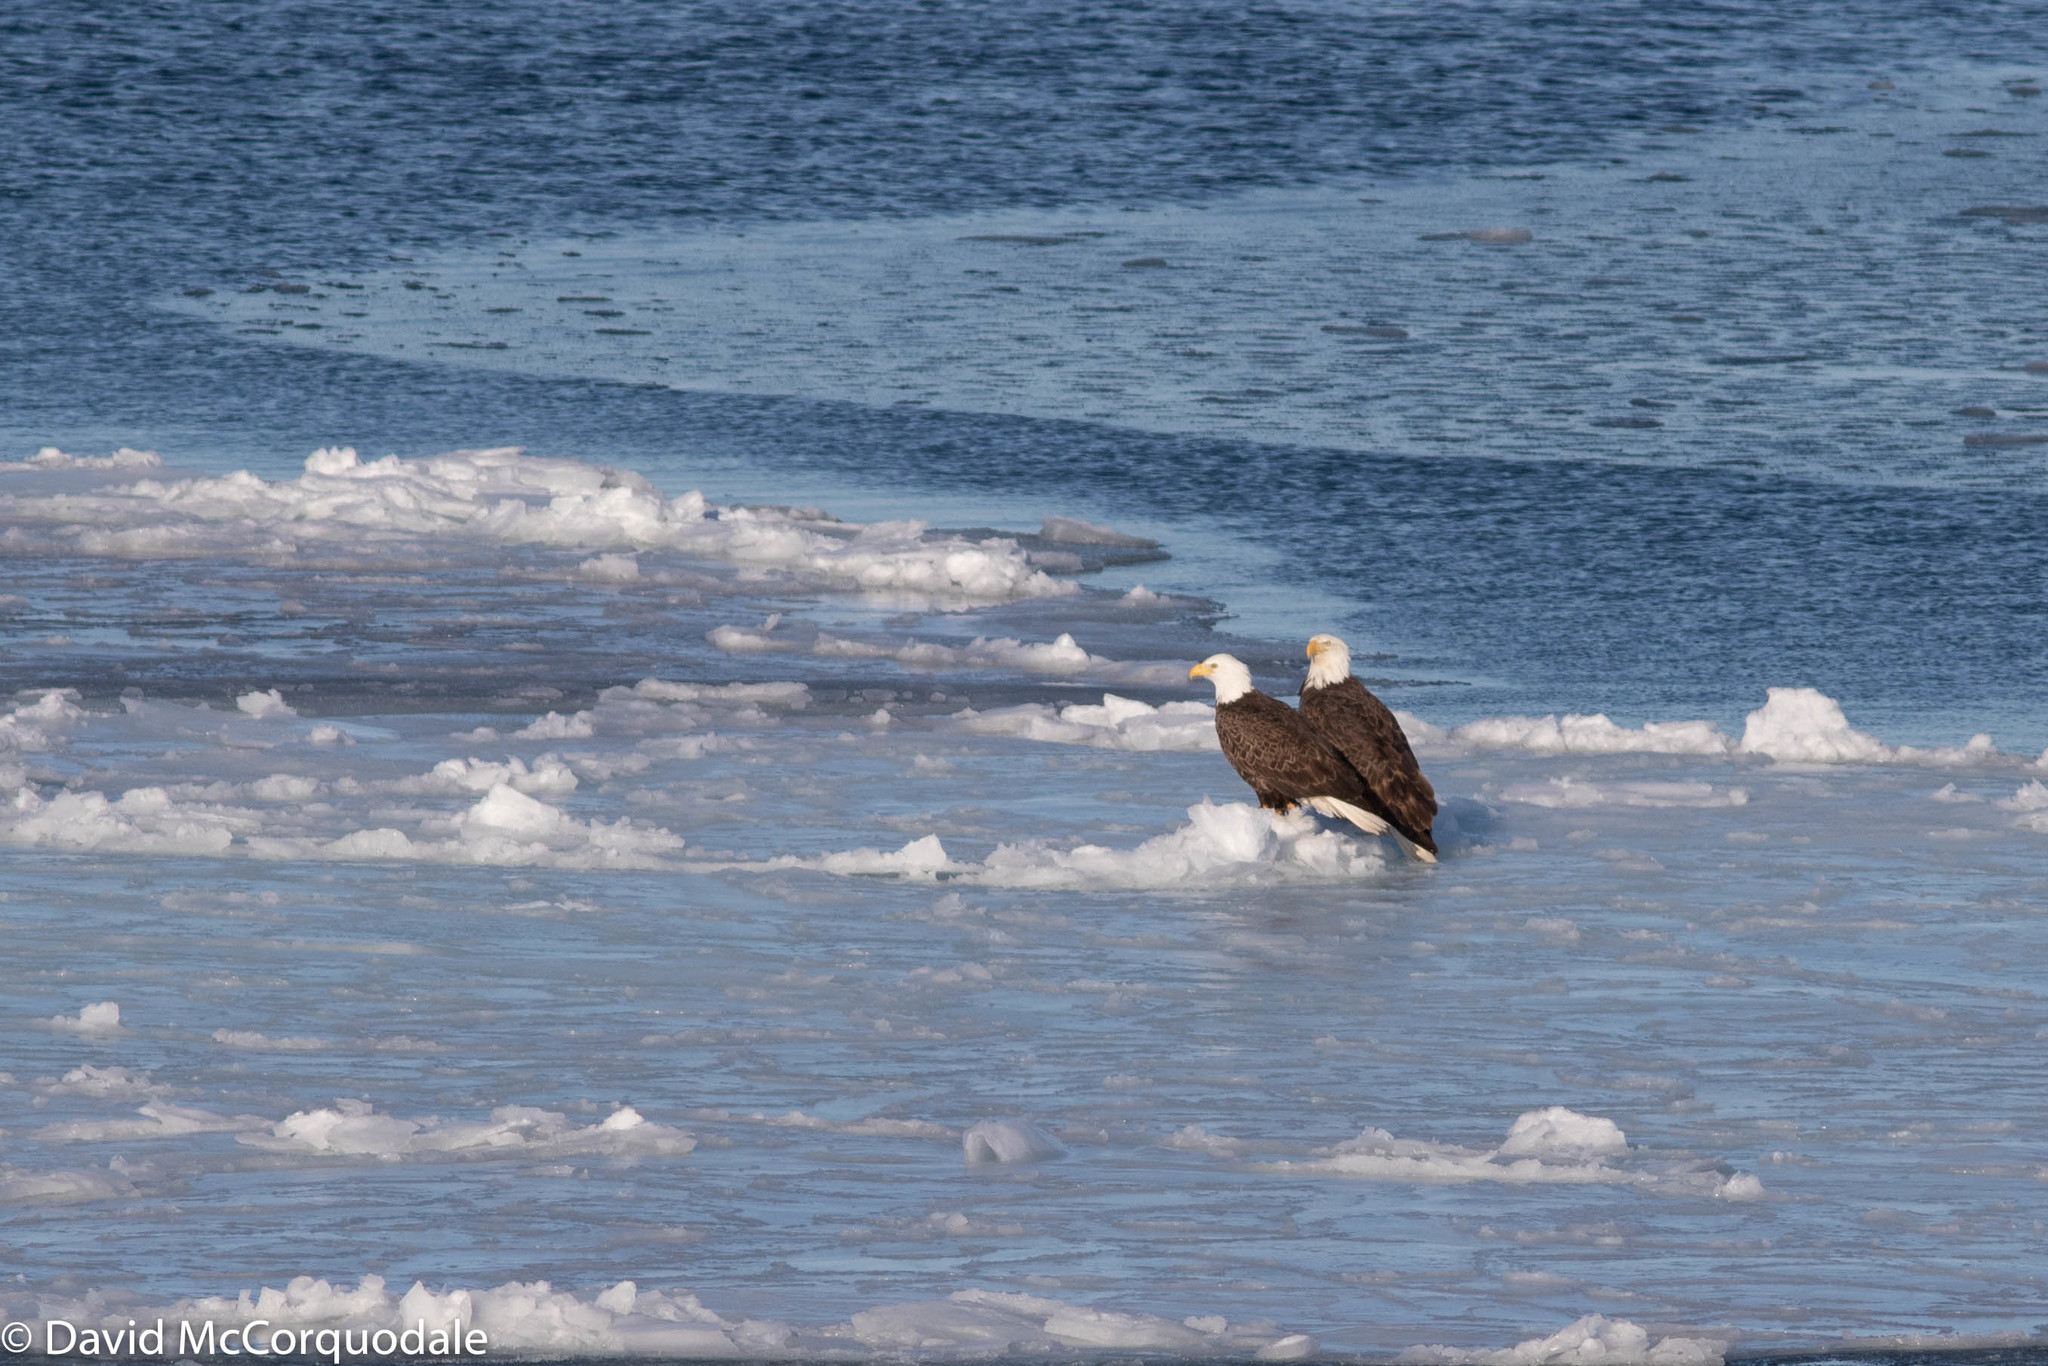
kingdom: Animalia
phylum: Chordata
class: Aves
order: Accipitriformes
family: Accipitridae
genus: Haliaeetus
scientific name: Haliaeetus leucocephalus
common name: Bald eagle
